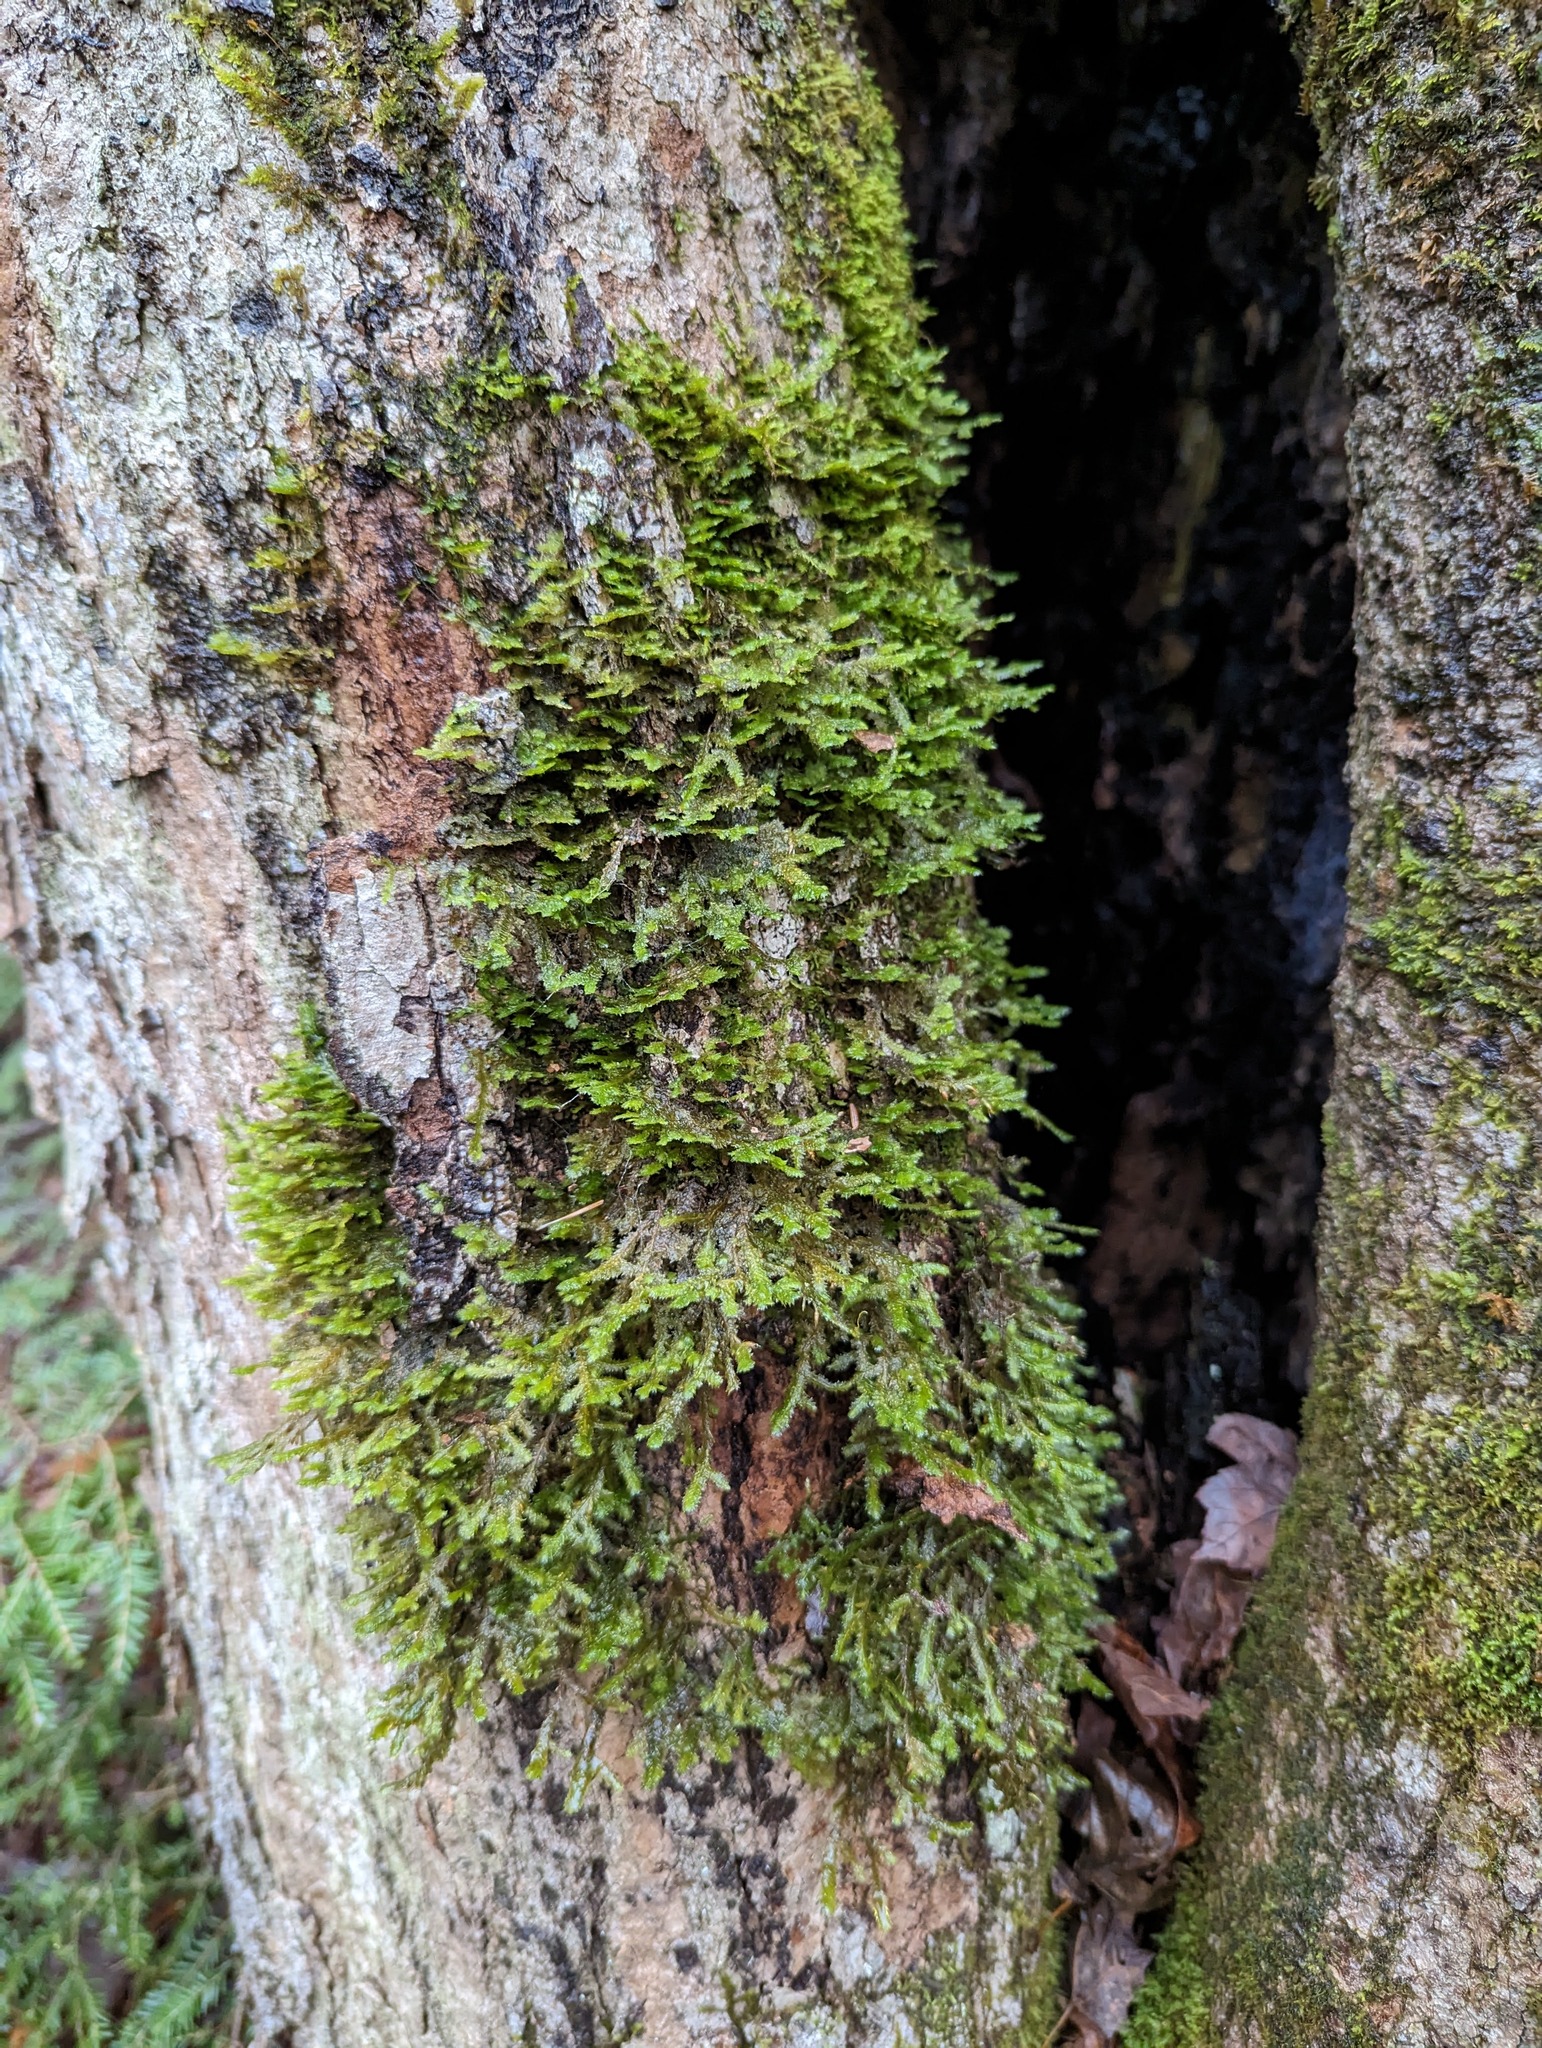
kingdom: Plantae
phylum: Bryophyta
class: Bryopsida
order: Hypnales
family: Neckeraceae
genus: Neckera
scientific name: Neckera pennata
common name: Feathery neckera
